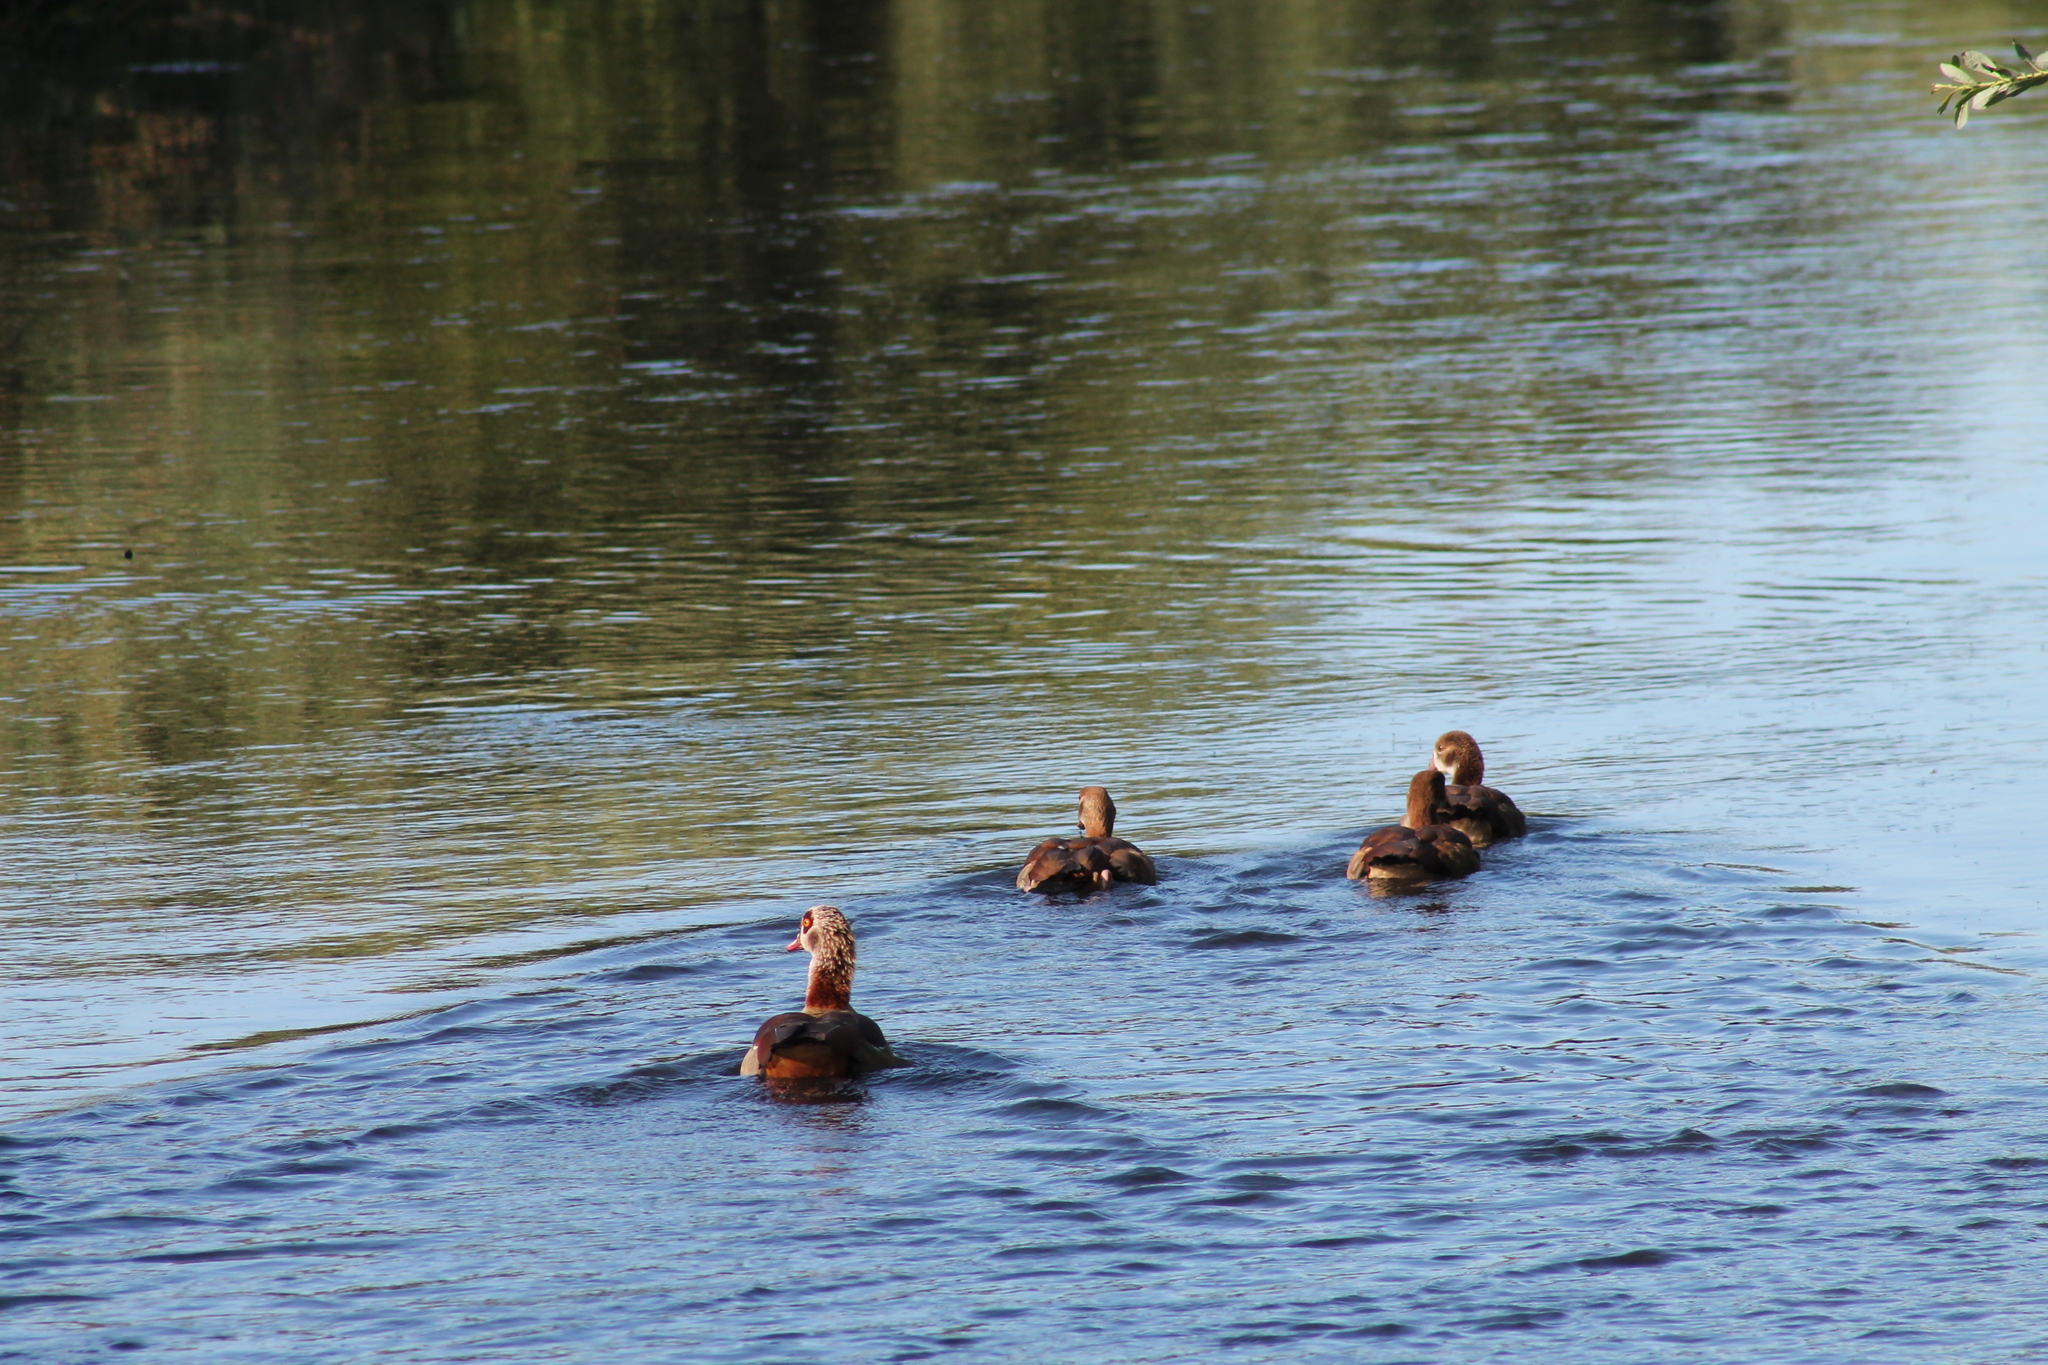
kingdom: Animalia
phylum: Chordata
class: Aves
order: Anseriformes
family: Anatidae
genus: Alopochen
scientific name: Alopochen aegyptiaca
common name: Egyptian goose
